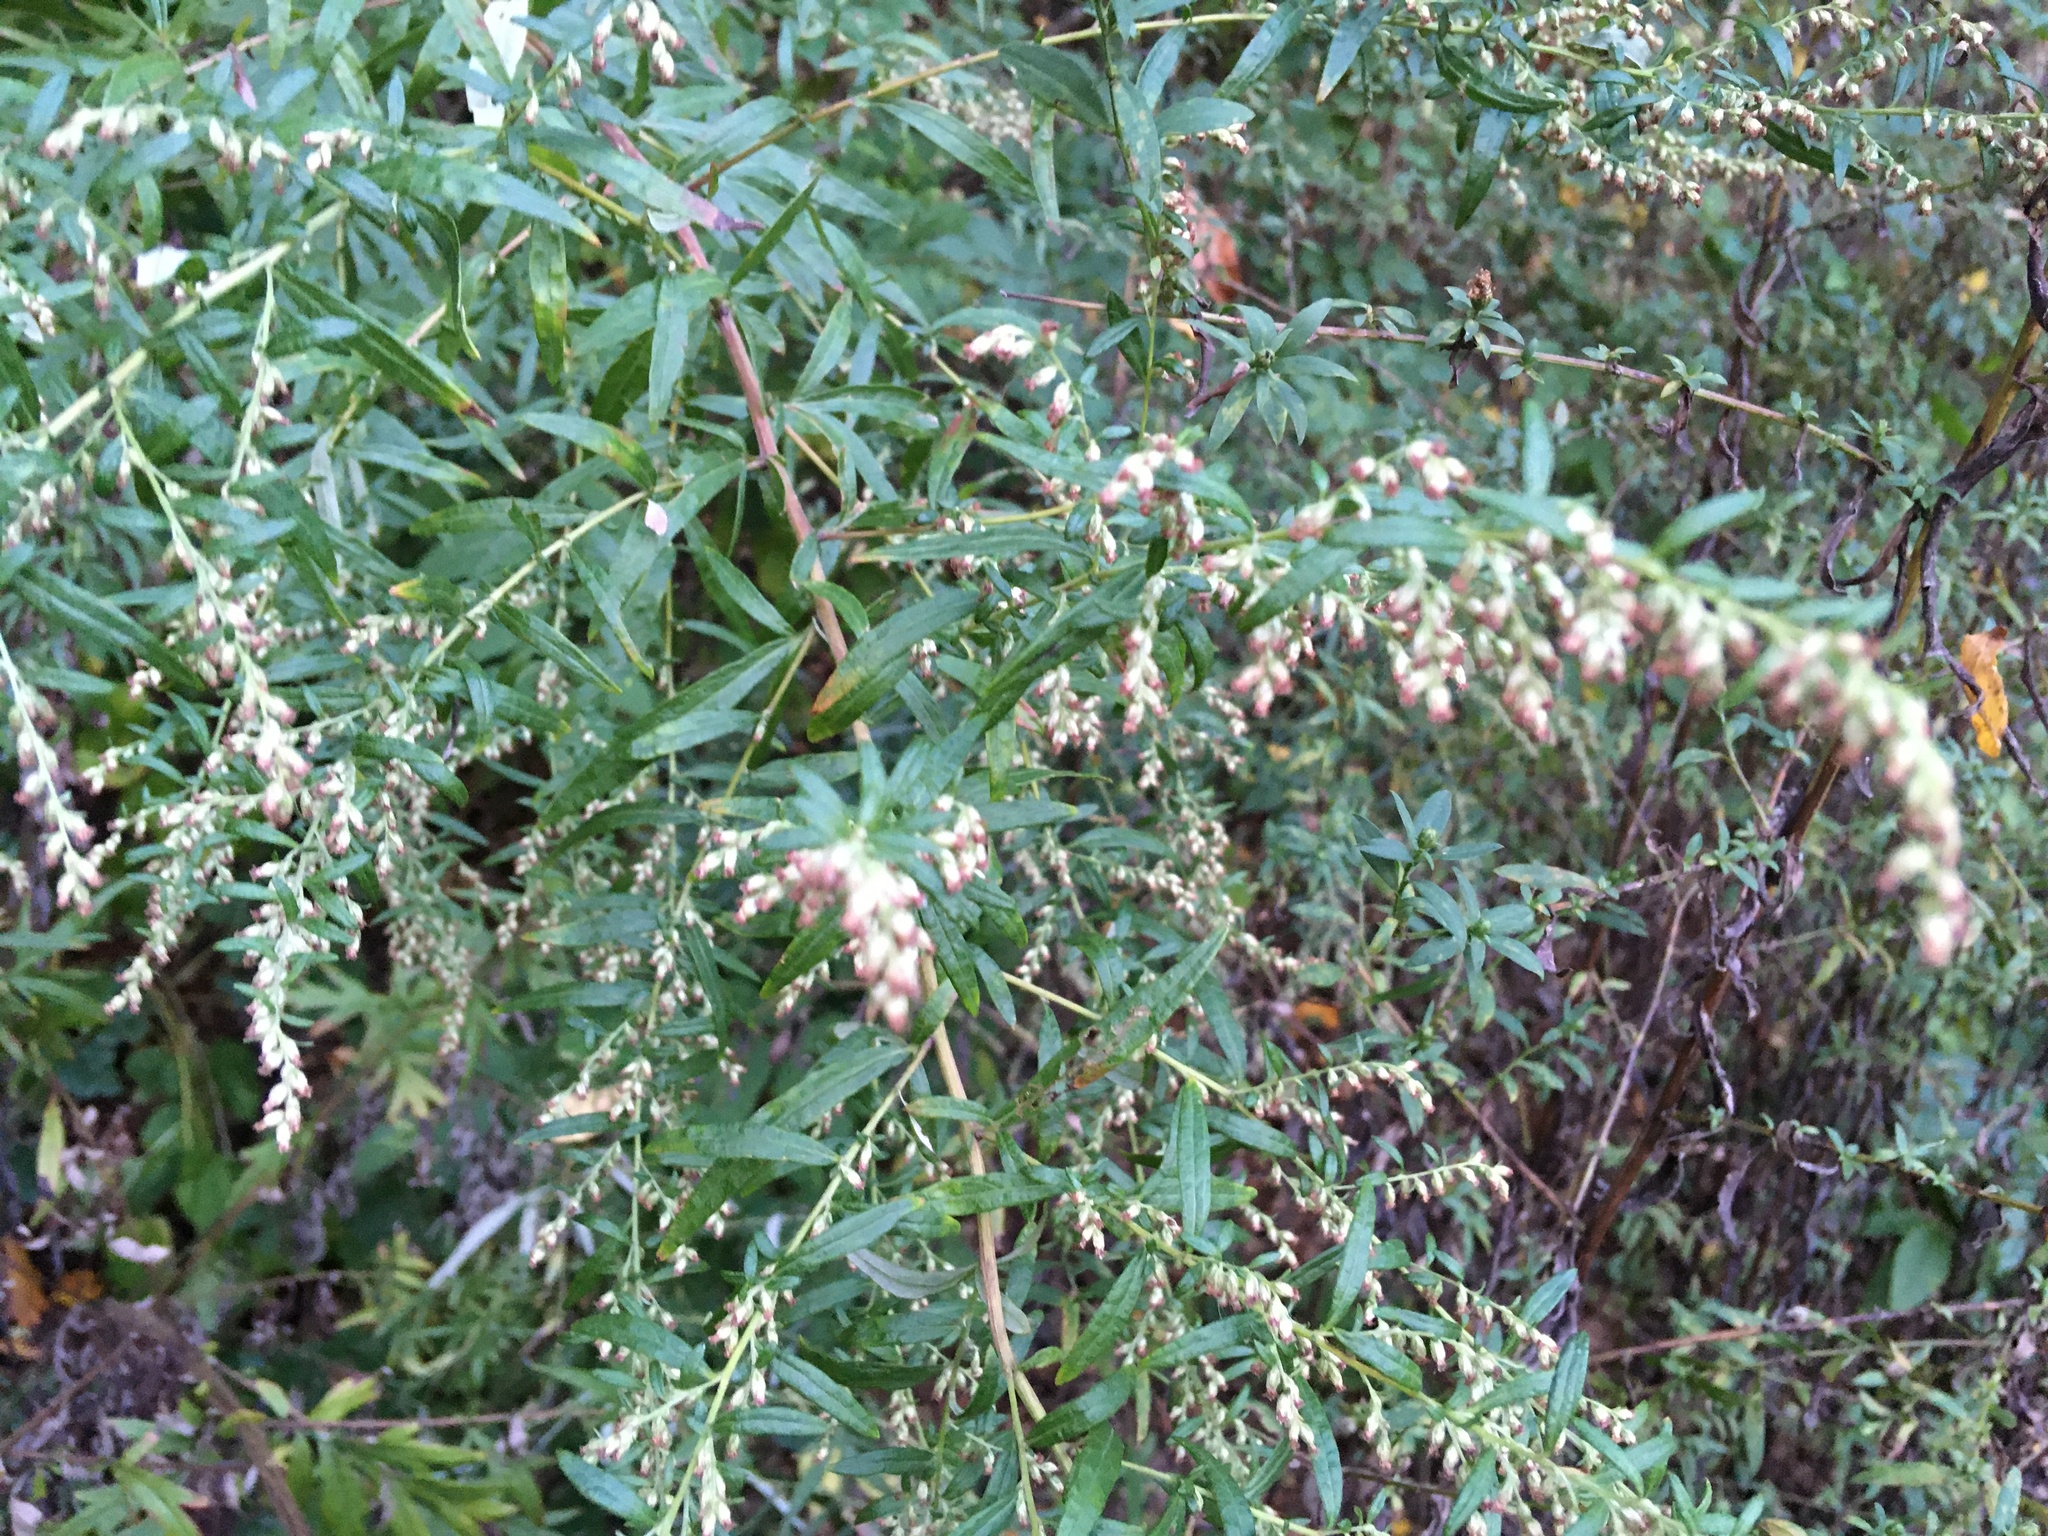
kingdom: Plantae
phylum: Tracheophyta
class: Magnoliopsida
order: Asterales
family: Asteraceae
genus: Artemisia
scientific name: Artemisia vulgaris
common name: Mugwort
